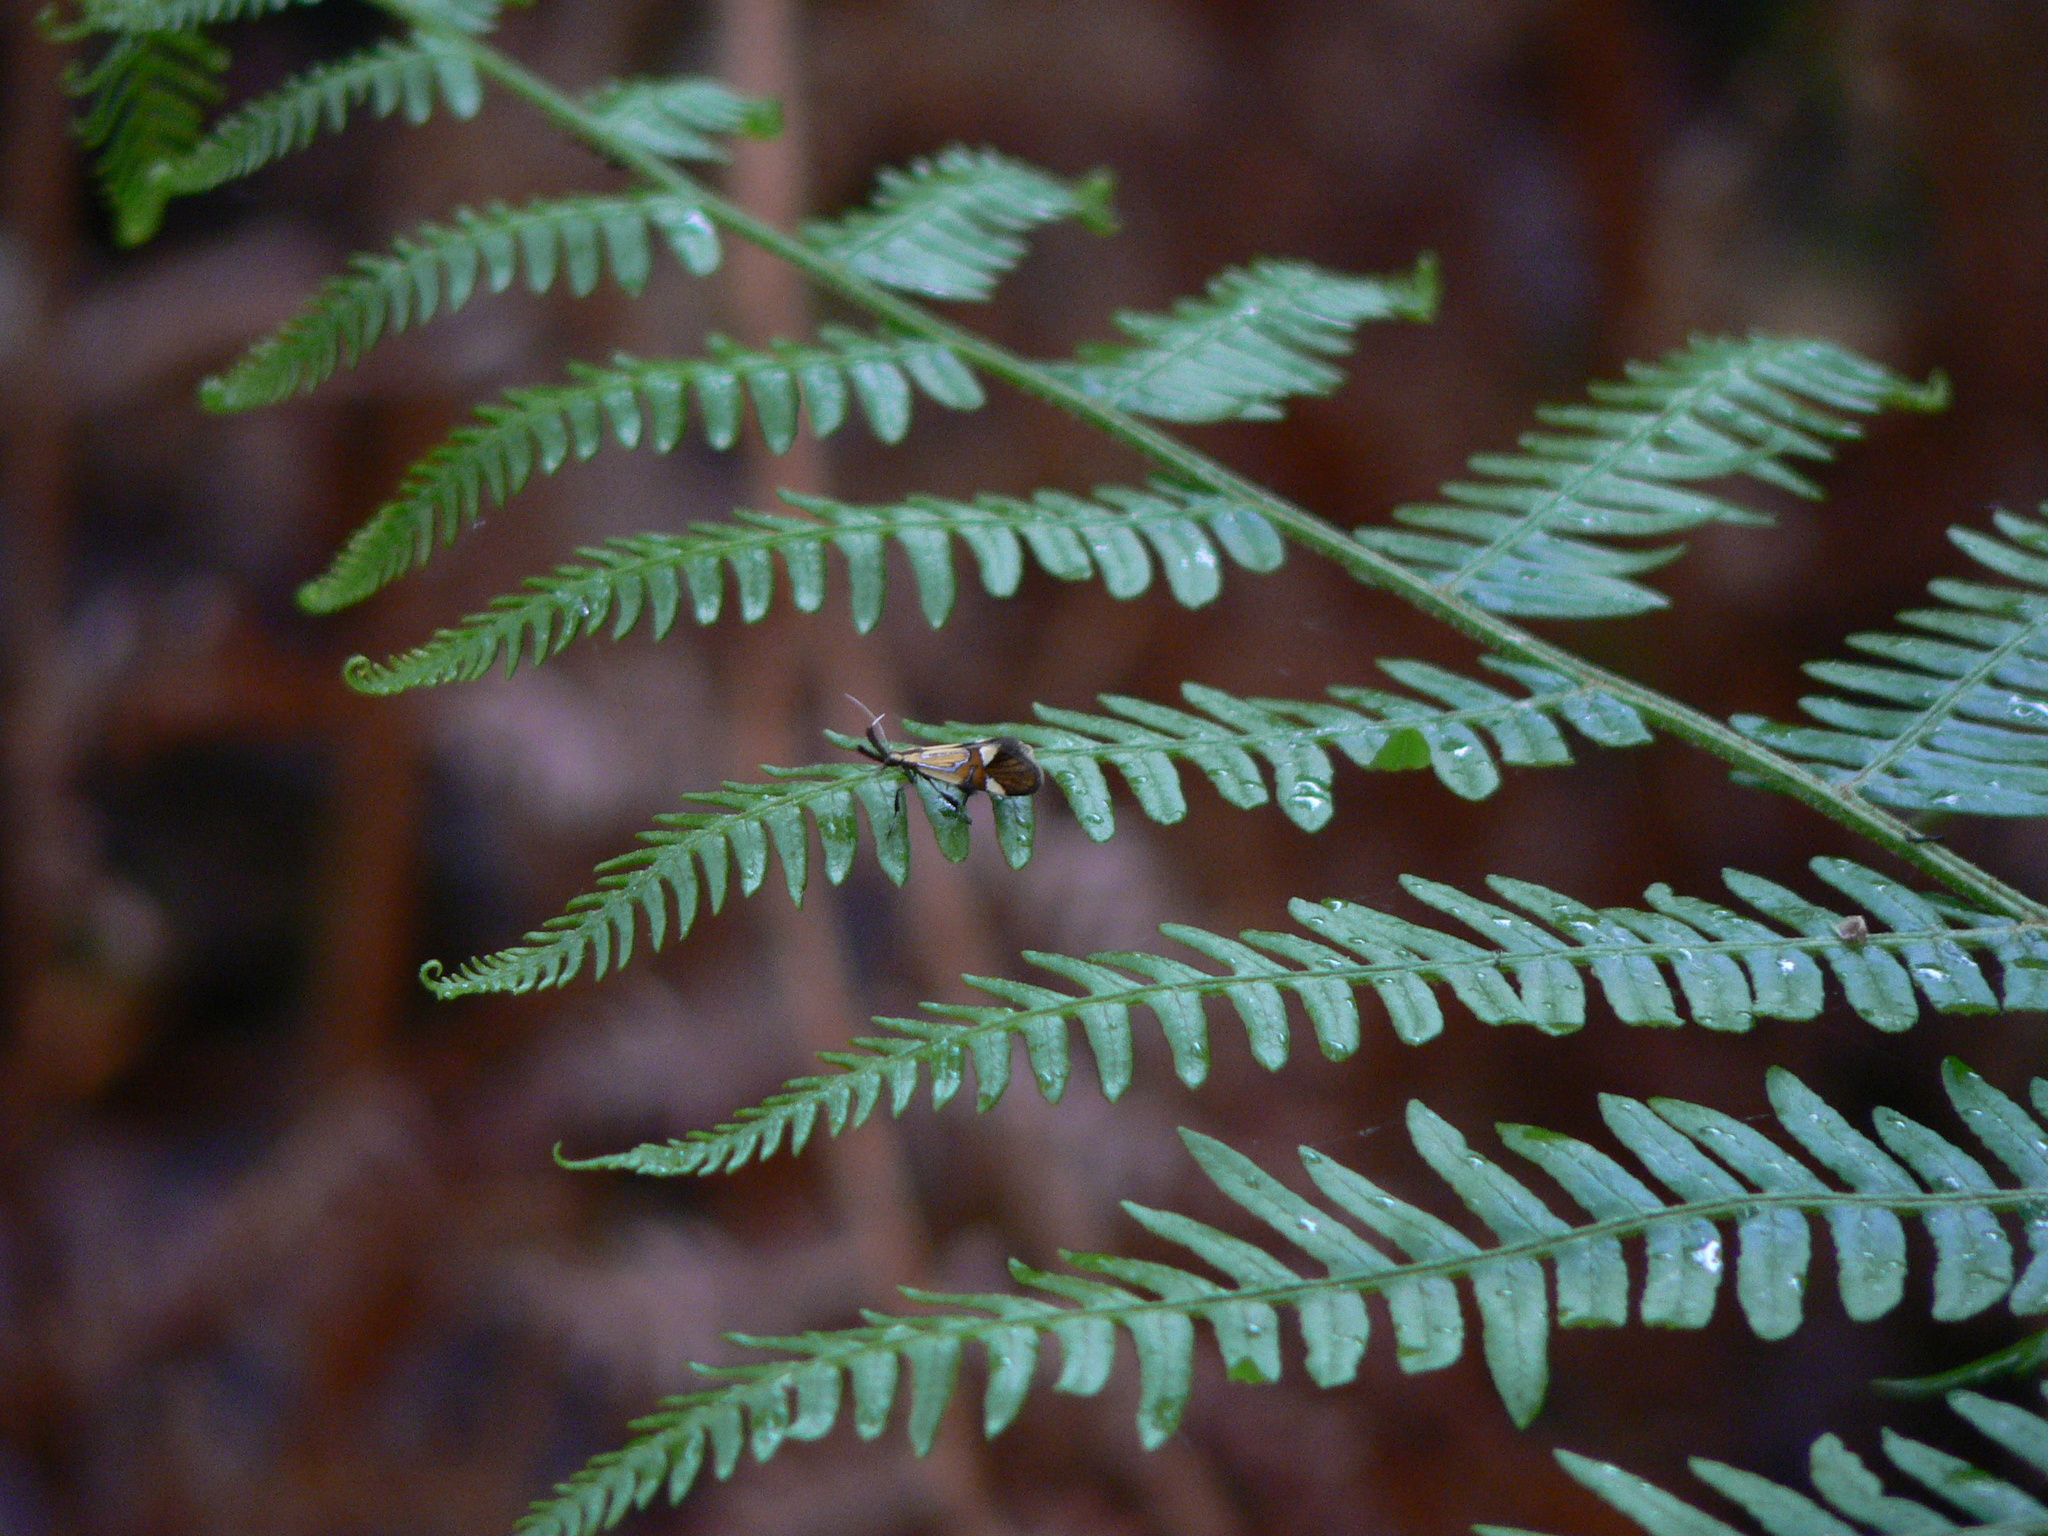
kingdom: Animalia
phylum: Arthropoda
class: Insecta
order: Lepidoptera
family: Oecophoridae
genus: Oecophora
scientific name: Oecophora Alabonia geoffrella
